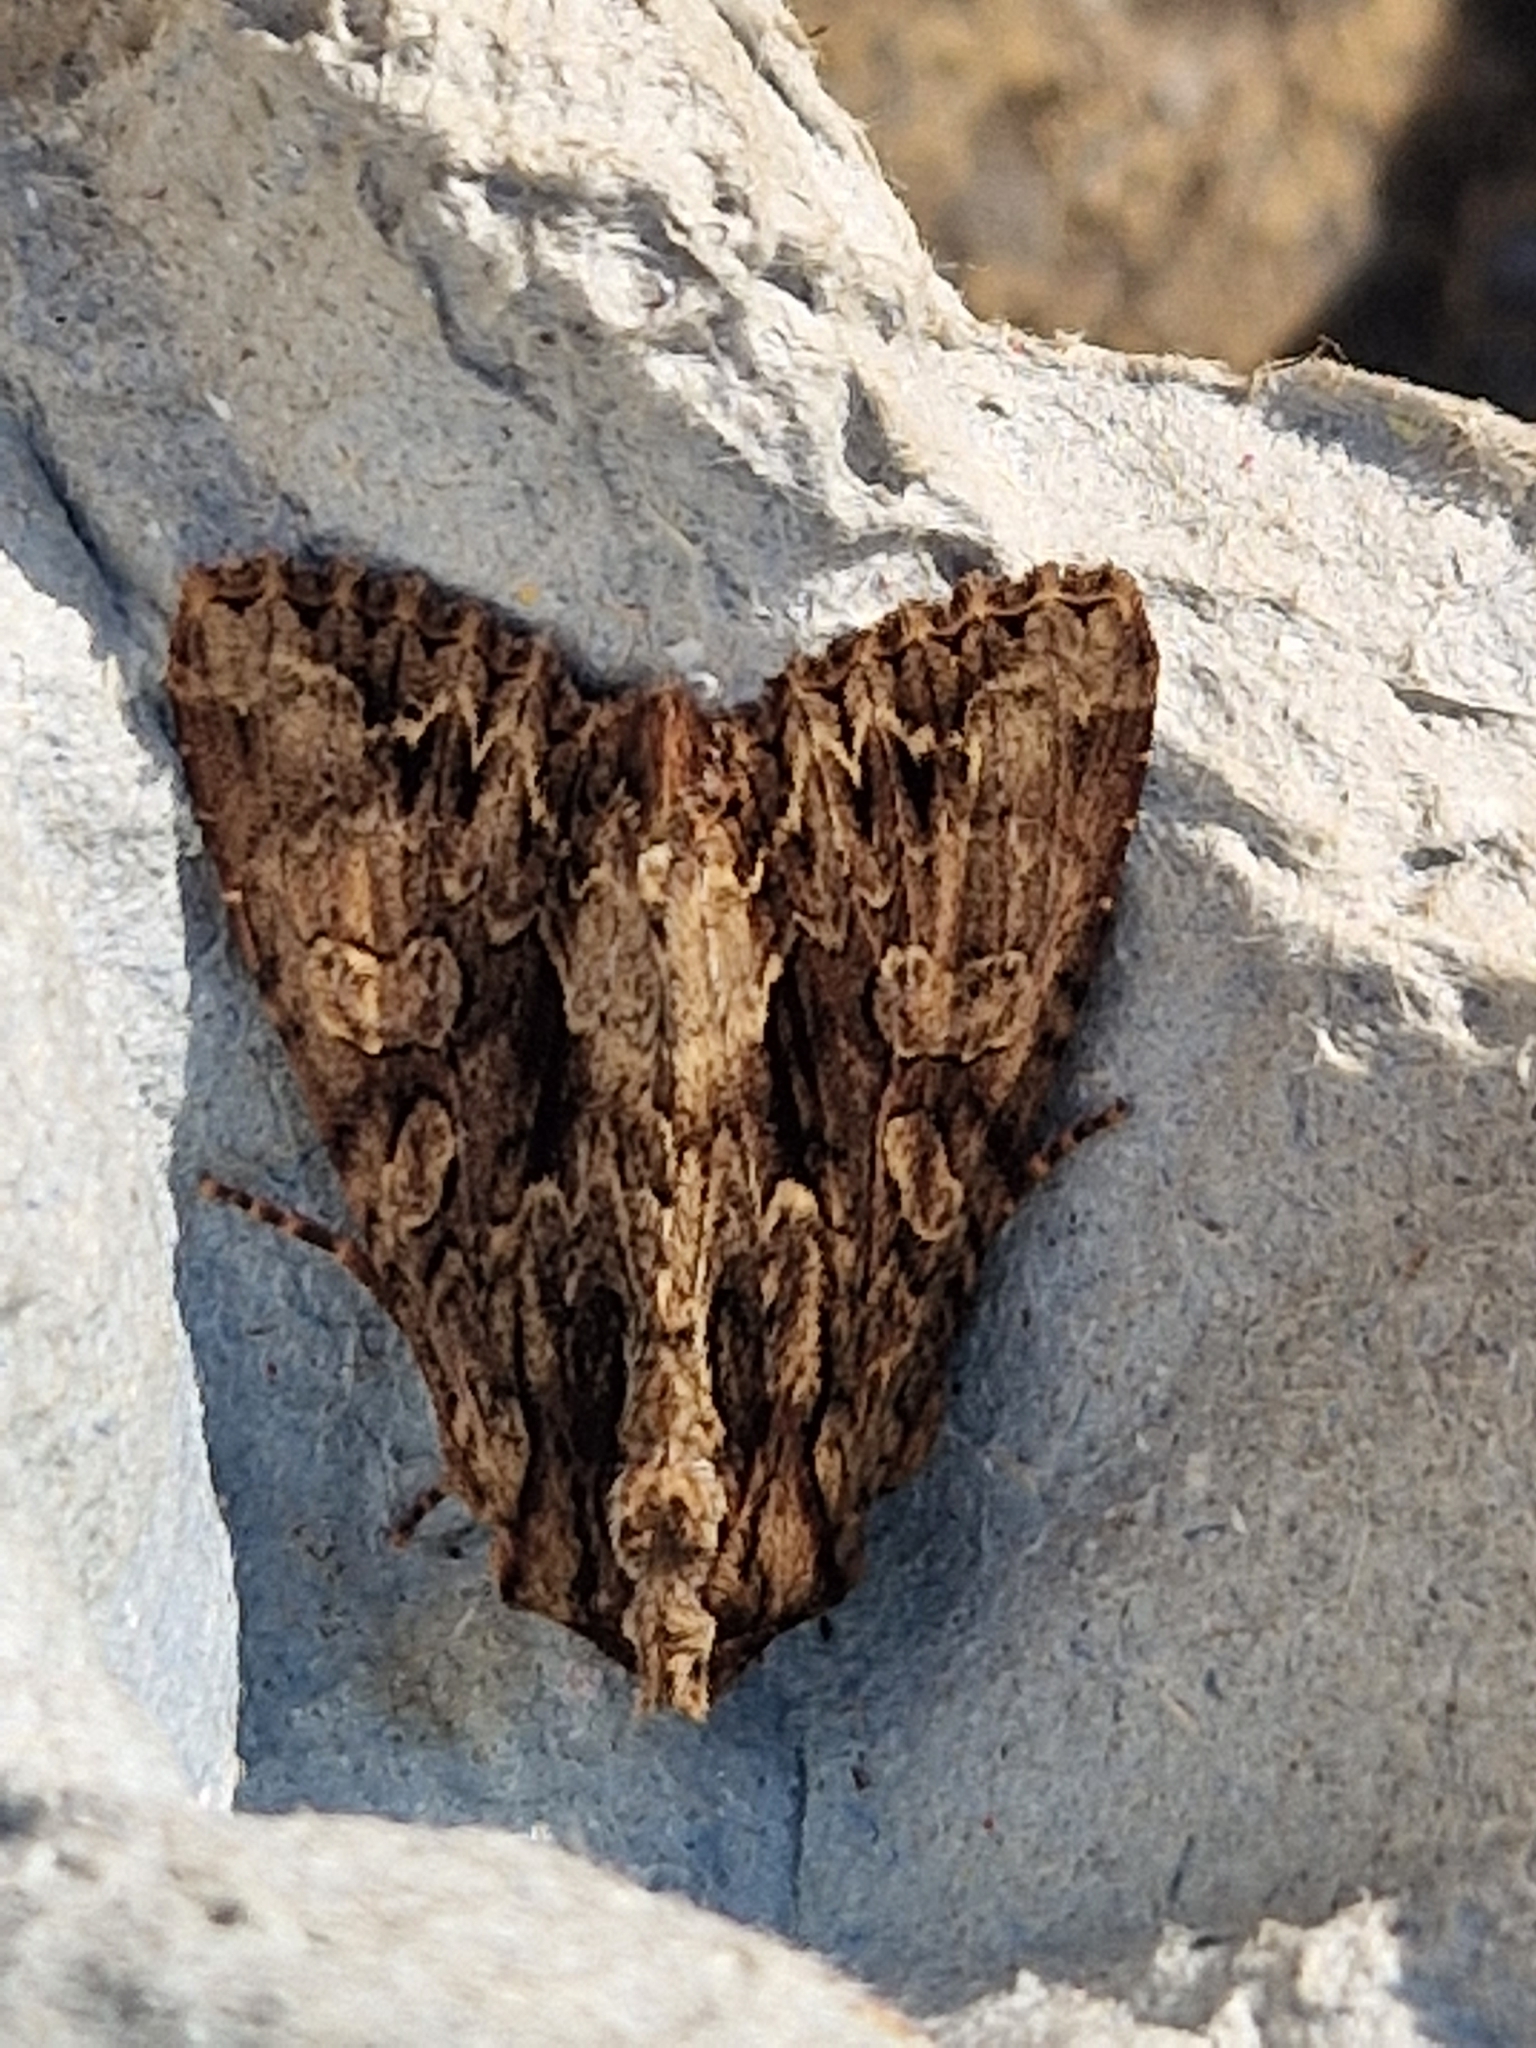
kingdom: Animalia
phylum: Arthropoda
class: Insecta
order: Lepidoptera
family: Noctuidae
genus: Apamea
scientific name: Apamea monoglypha
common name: Dark arches
